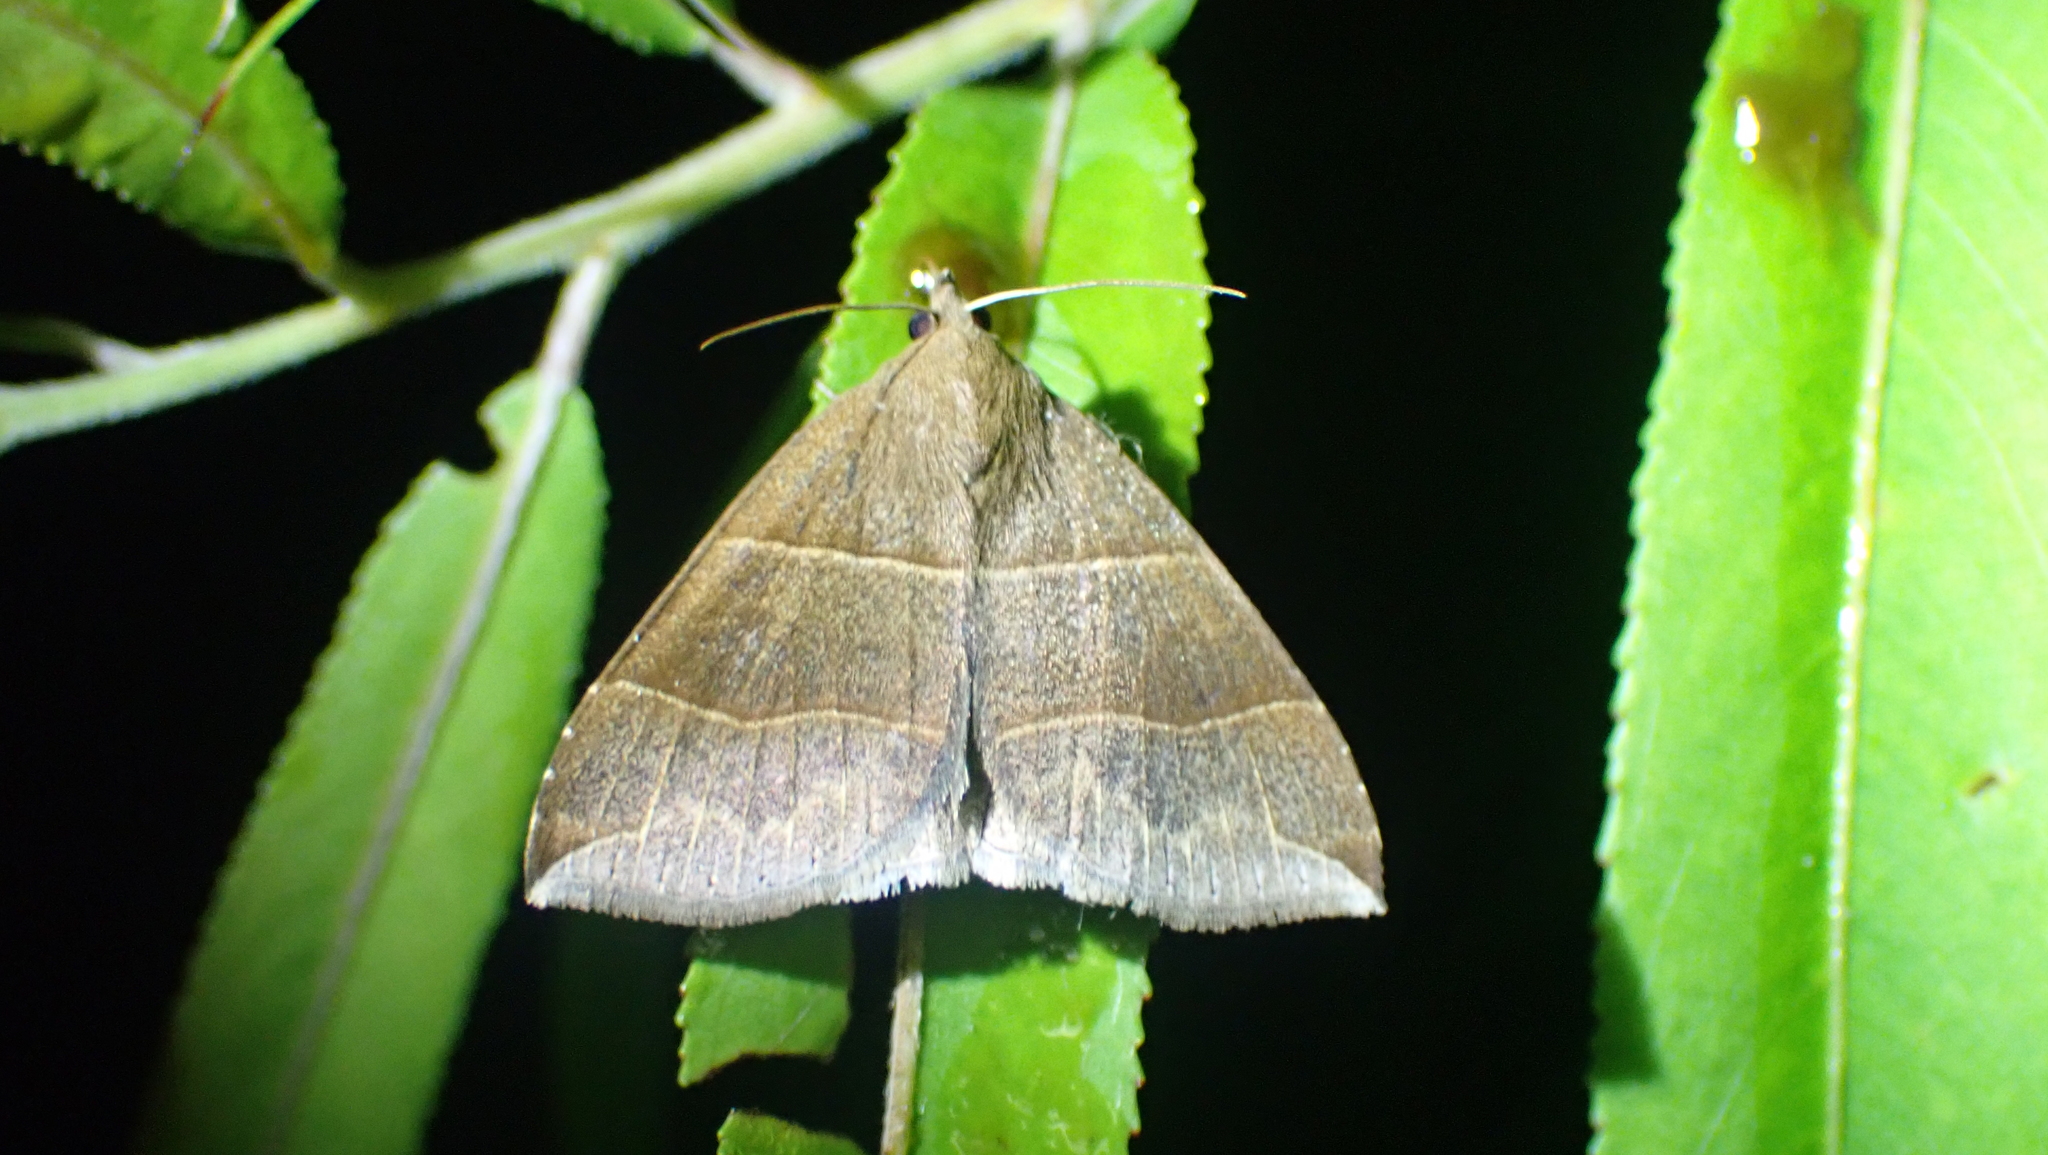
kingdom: Animalia
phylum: Arthropoda
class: Insecta
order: Lepidoptera
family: Erebidae
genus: Parallelia
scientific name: Parallelia bistriaris
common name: Maple looper moth
